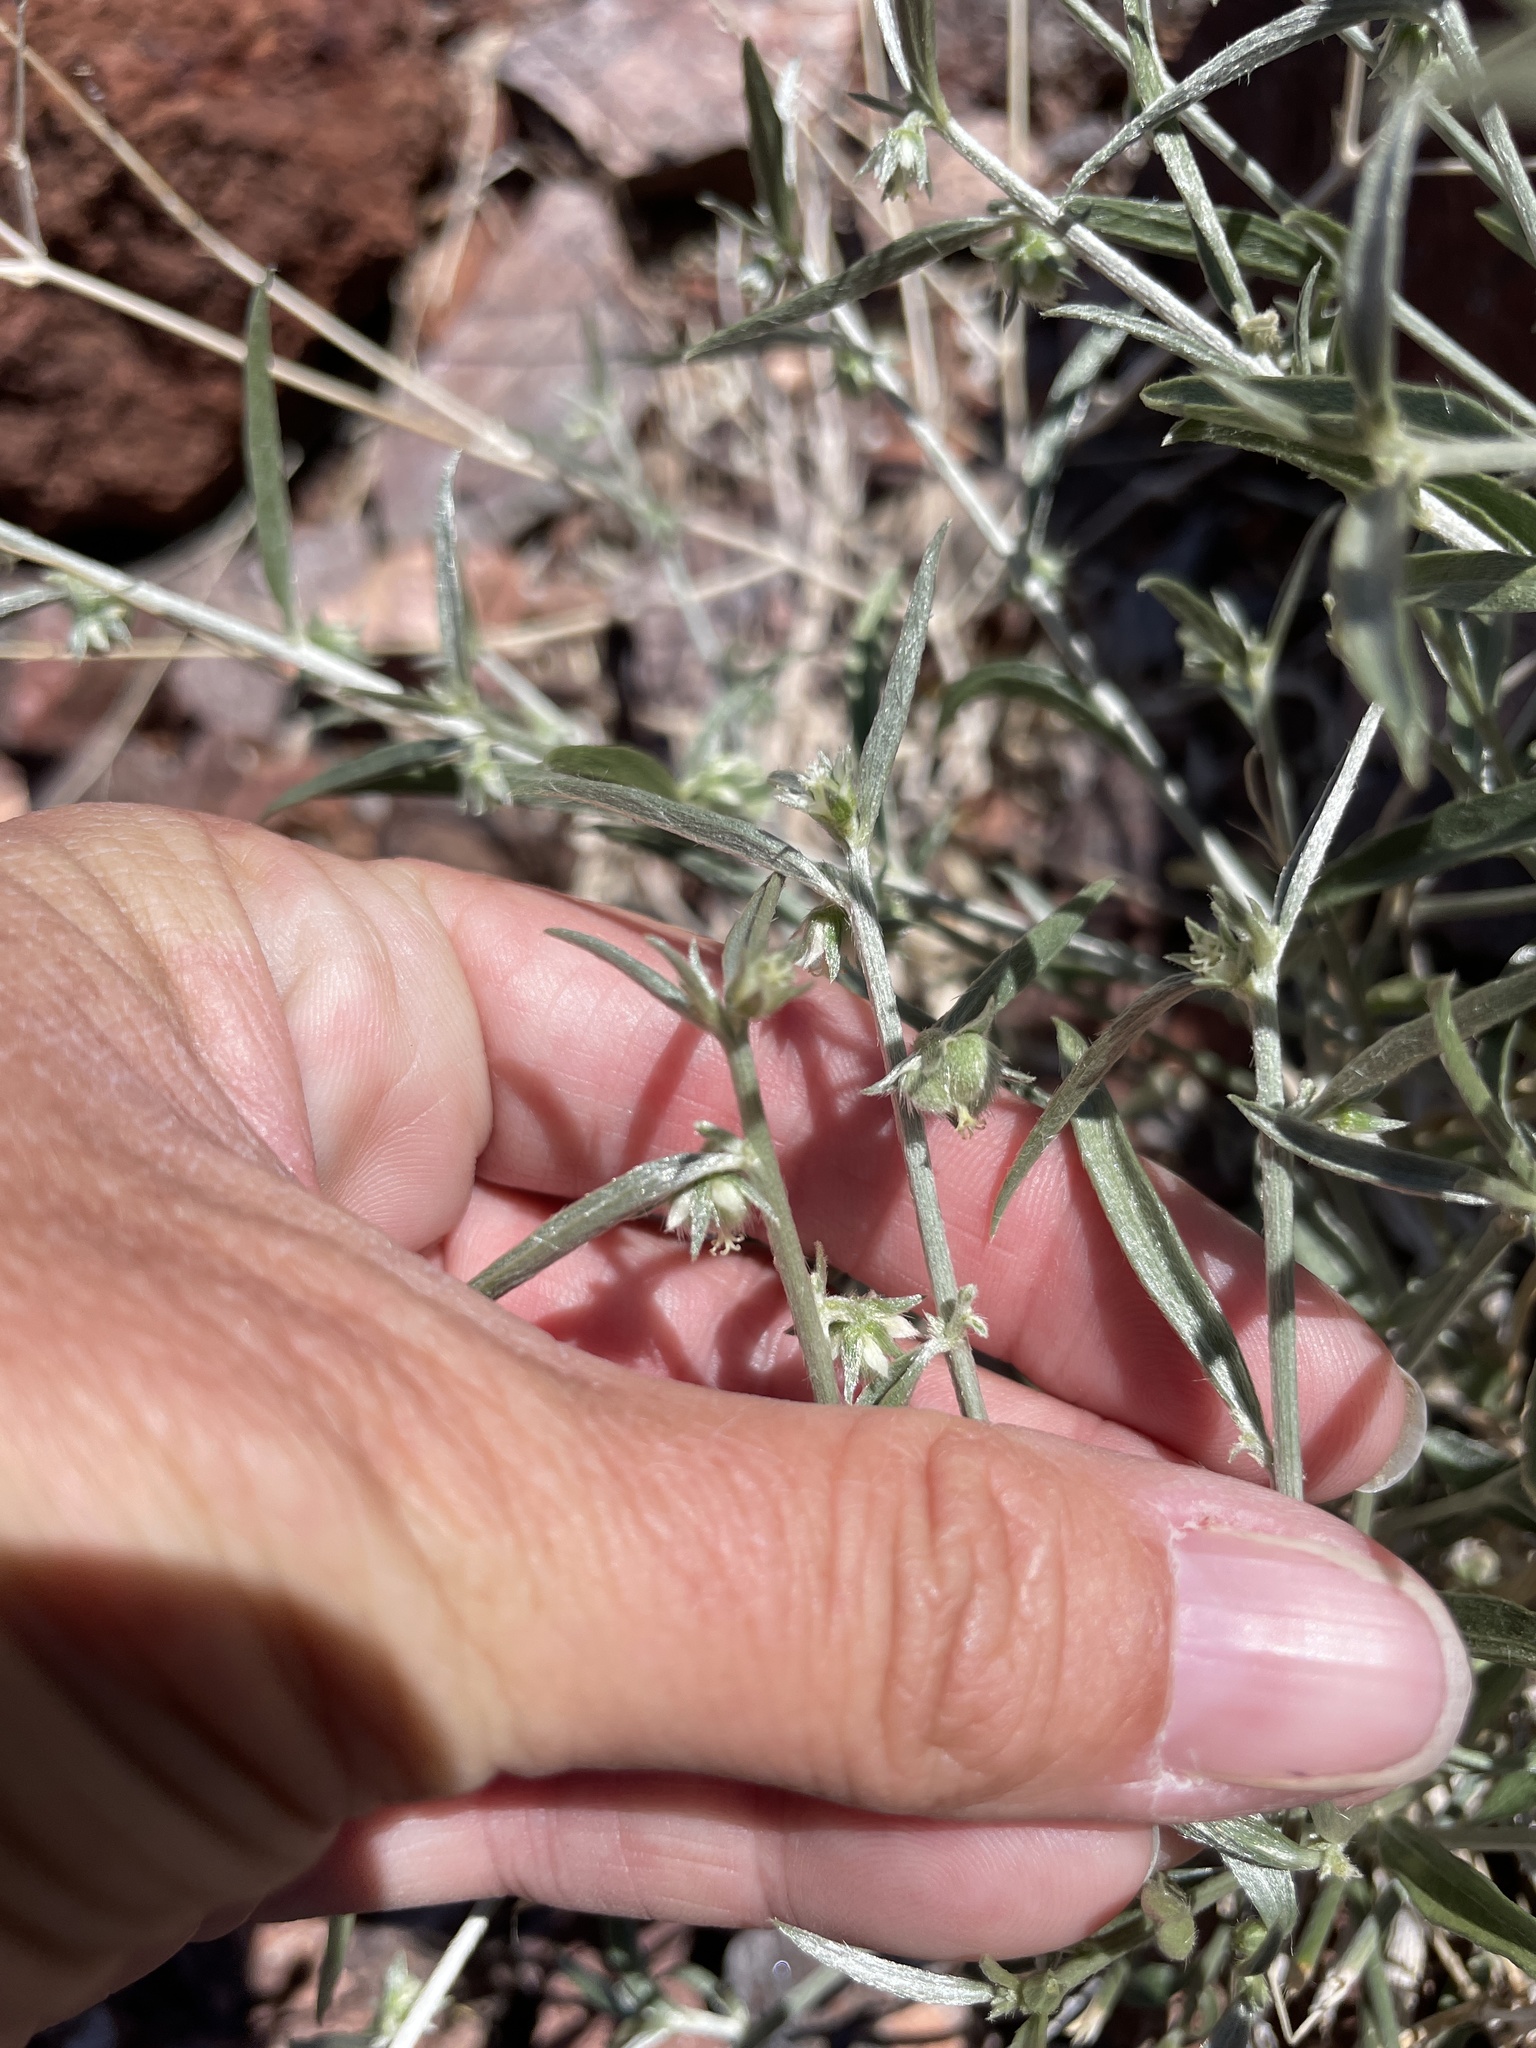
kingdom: Plantae
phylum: Tracheophyta
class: Magnoliopsida
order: Malpighiales
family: Euphorbiaceae
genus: Ditaxis
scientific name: Ditaxis lanceolata
